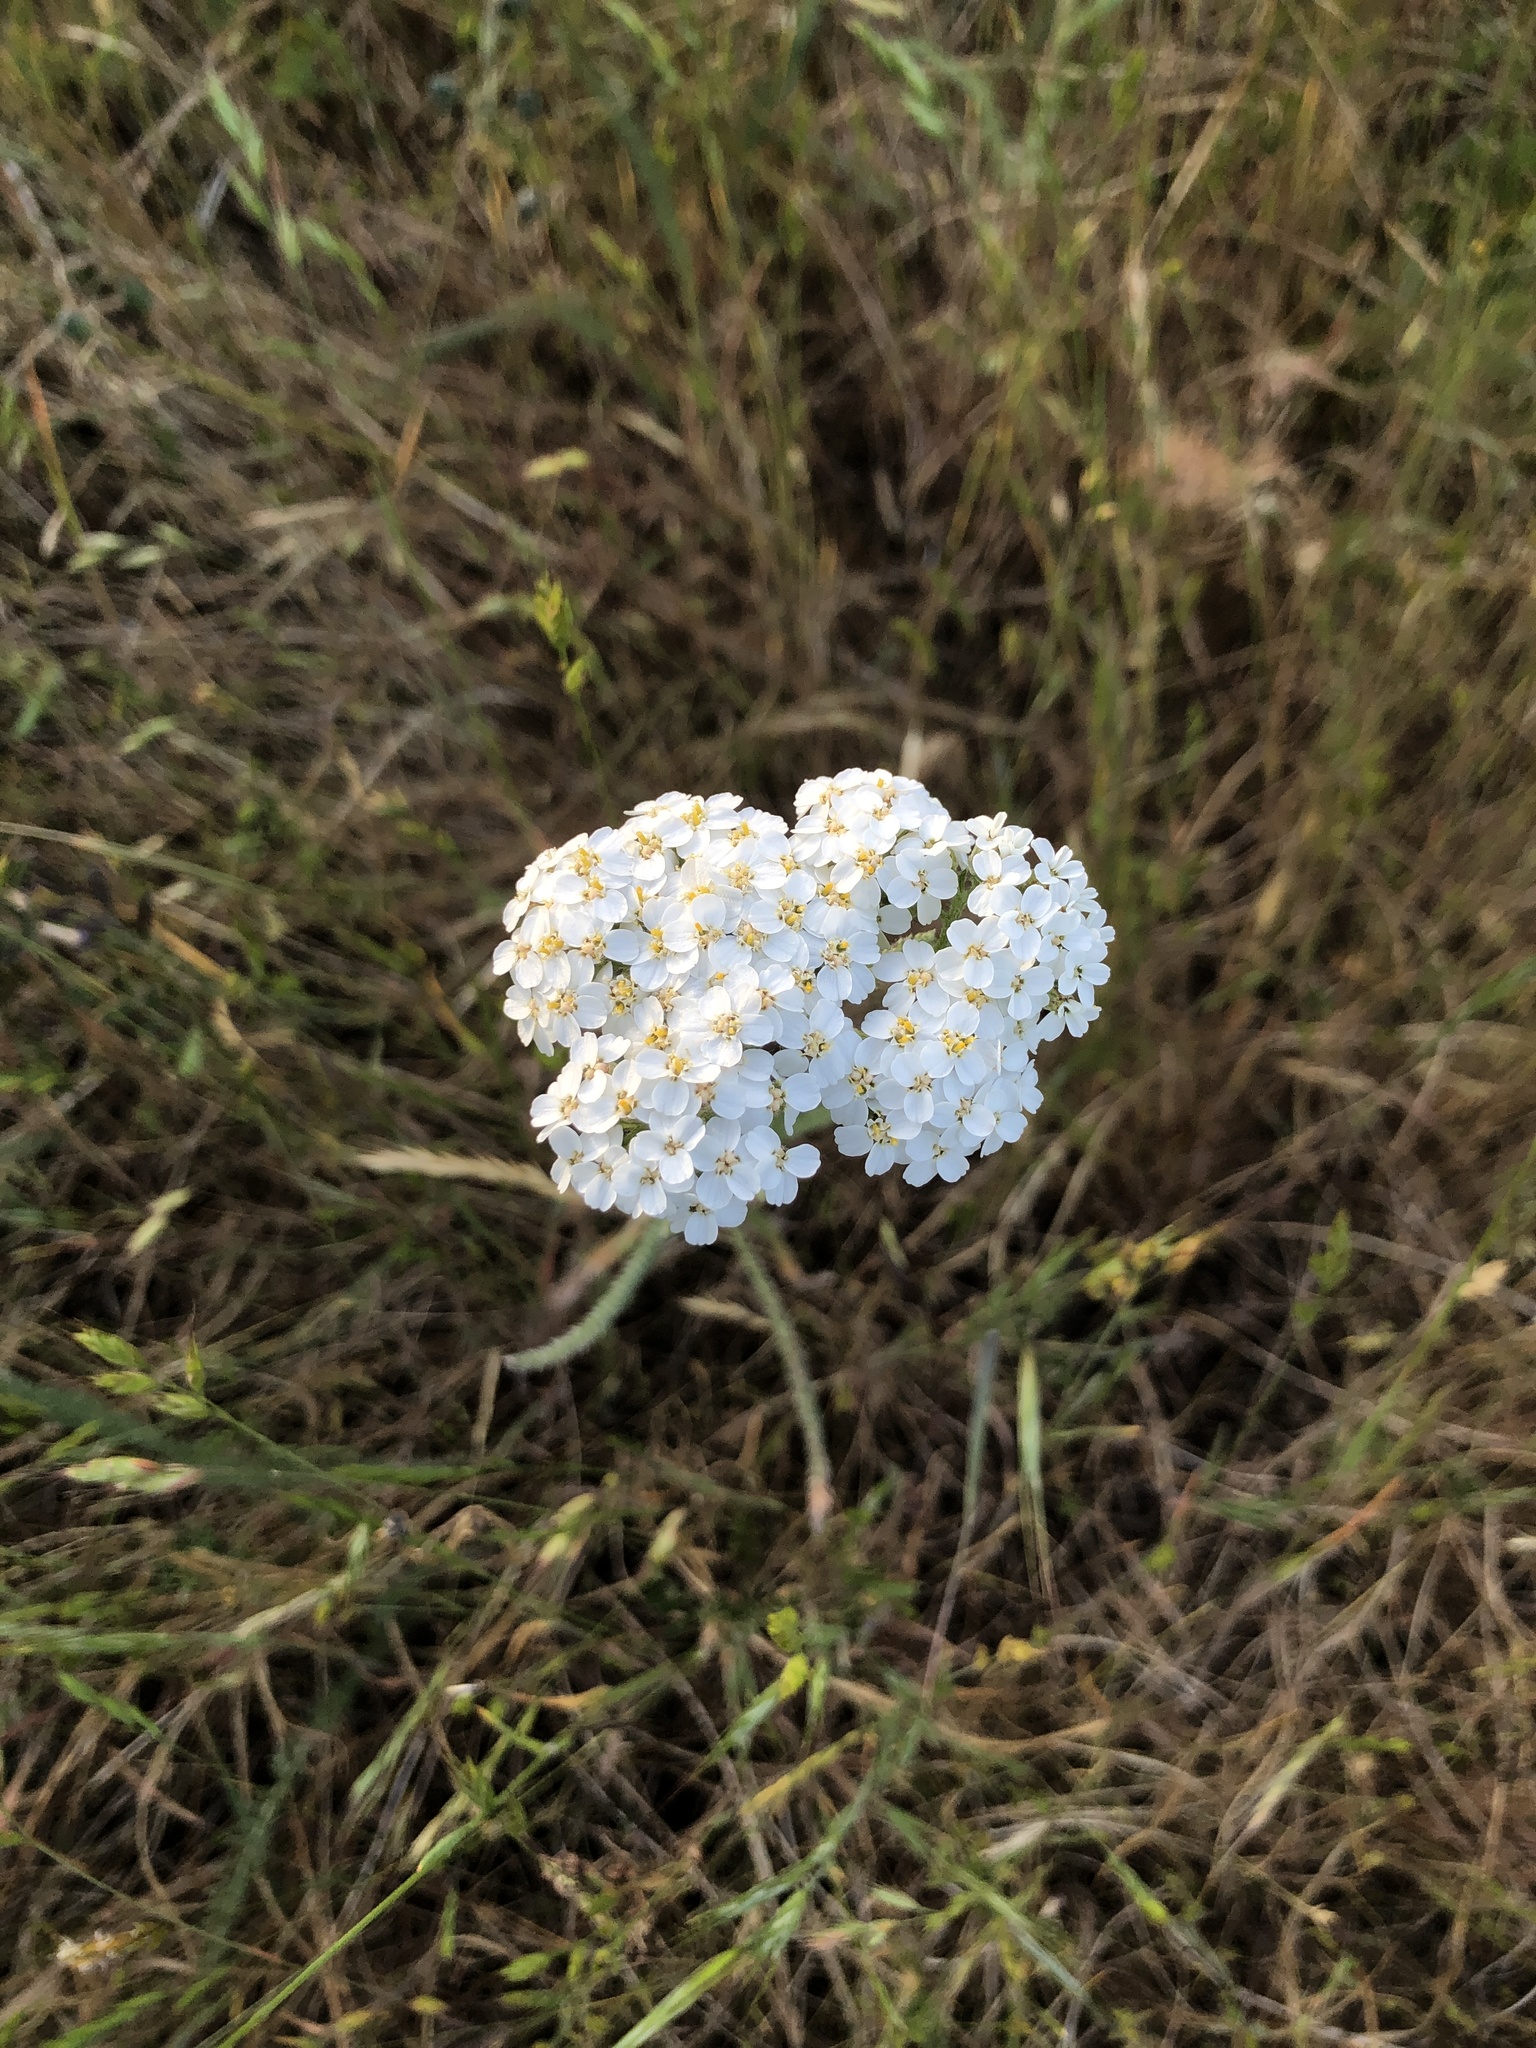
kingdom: Plantae
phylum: Tracheophyta
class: Magnoliopsida
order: Asterales
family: Asteraceae
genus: Achillea
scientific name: Achillea millefolium
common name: Yarrow
